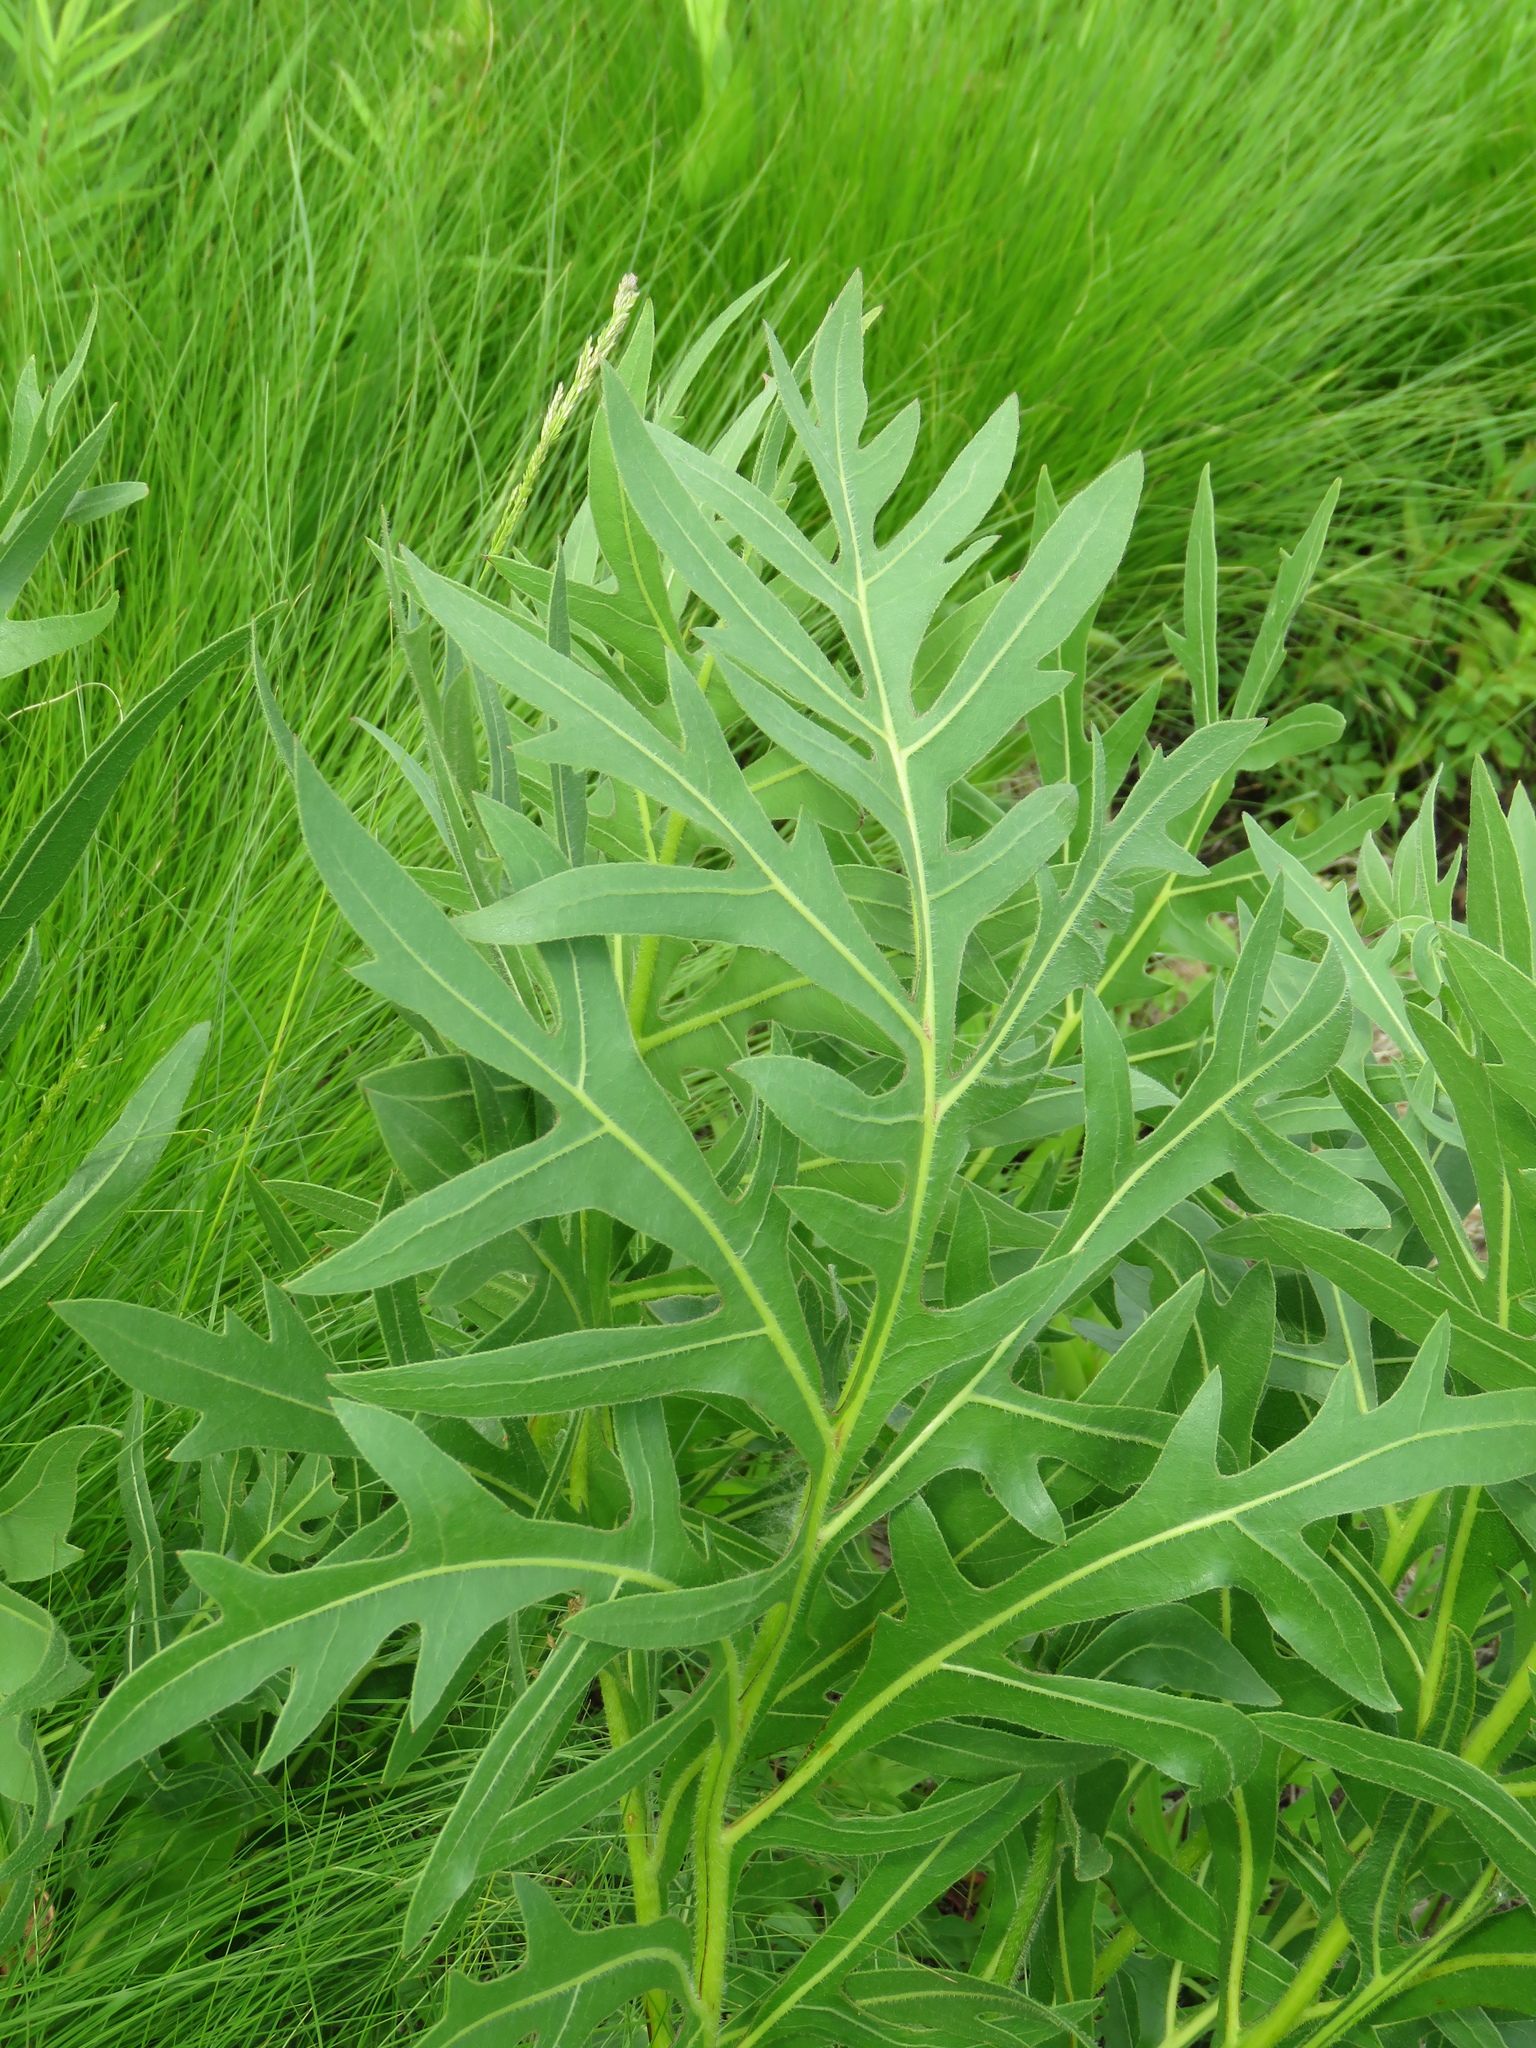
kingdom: Plantae
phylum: Tracheophyta
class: Magnoliopsida
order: Asterales
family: Asteraceae
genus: Silphium
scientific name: Silphium laciniatum
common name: Polarplant
